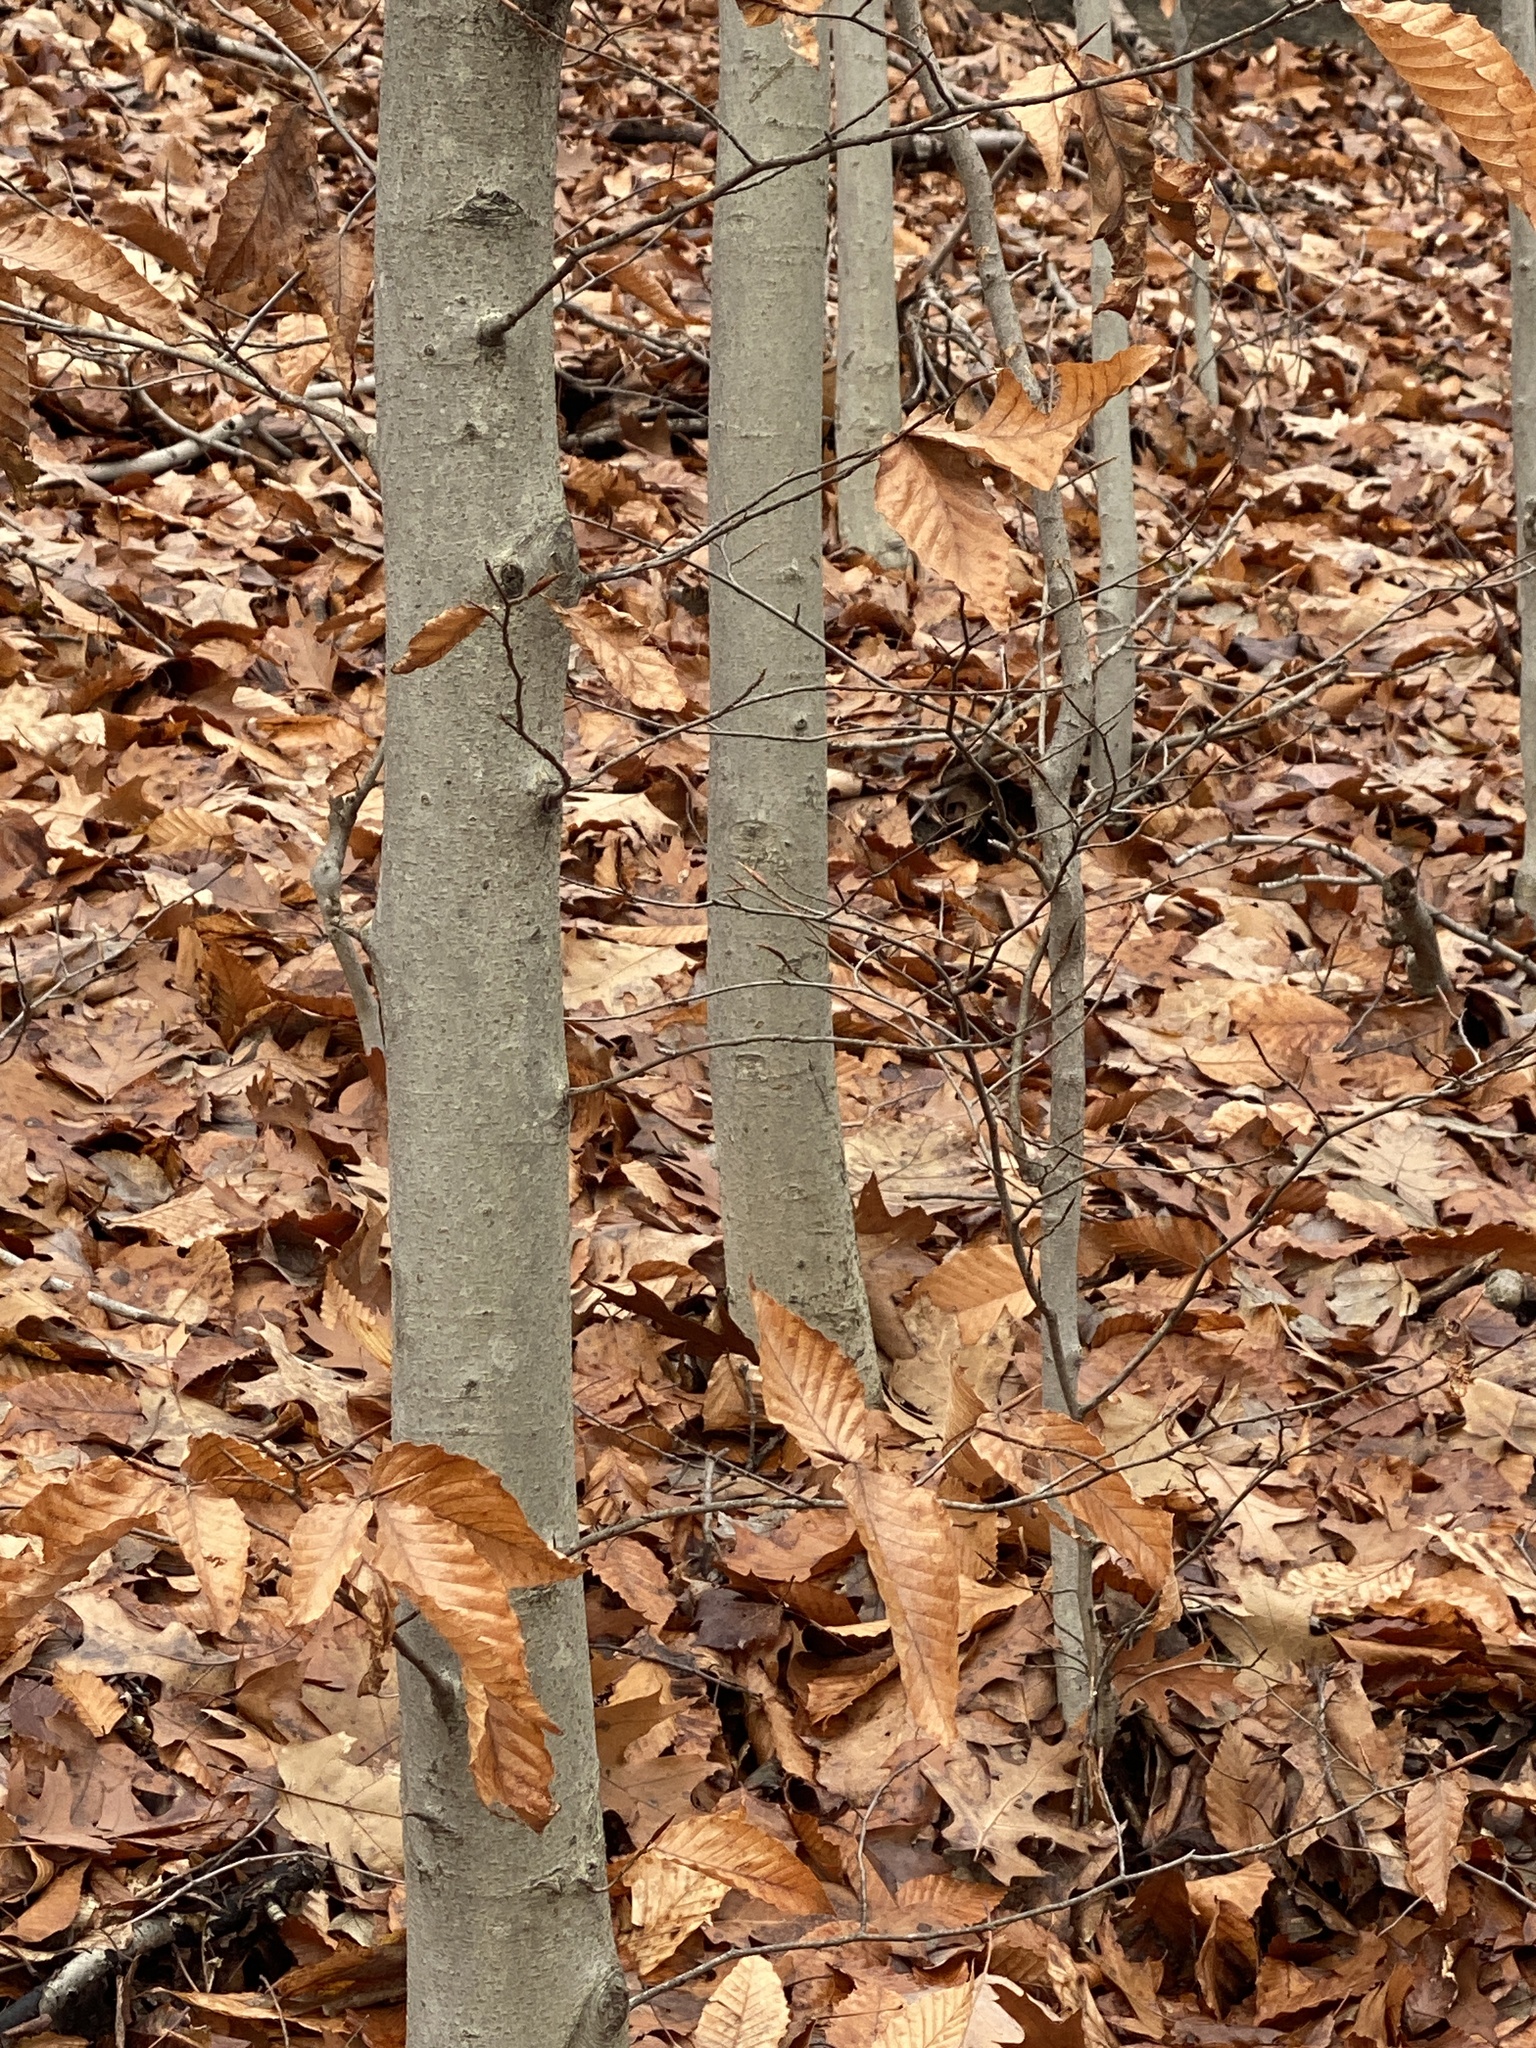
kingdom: Plantae
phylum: Tracheophyta
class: Magnoliopsida
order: Fagales
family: Fagaceae
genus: Fagus
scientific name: Fagus grandifolia
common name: American beech
